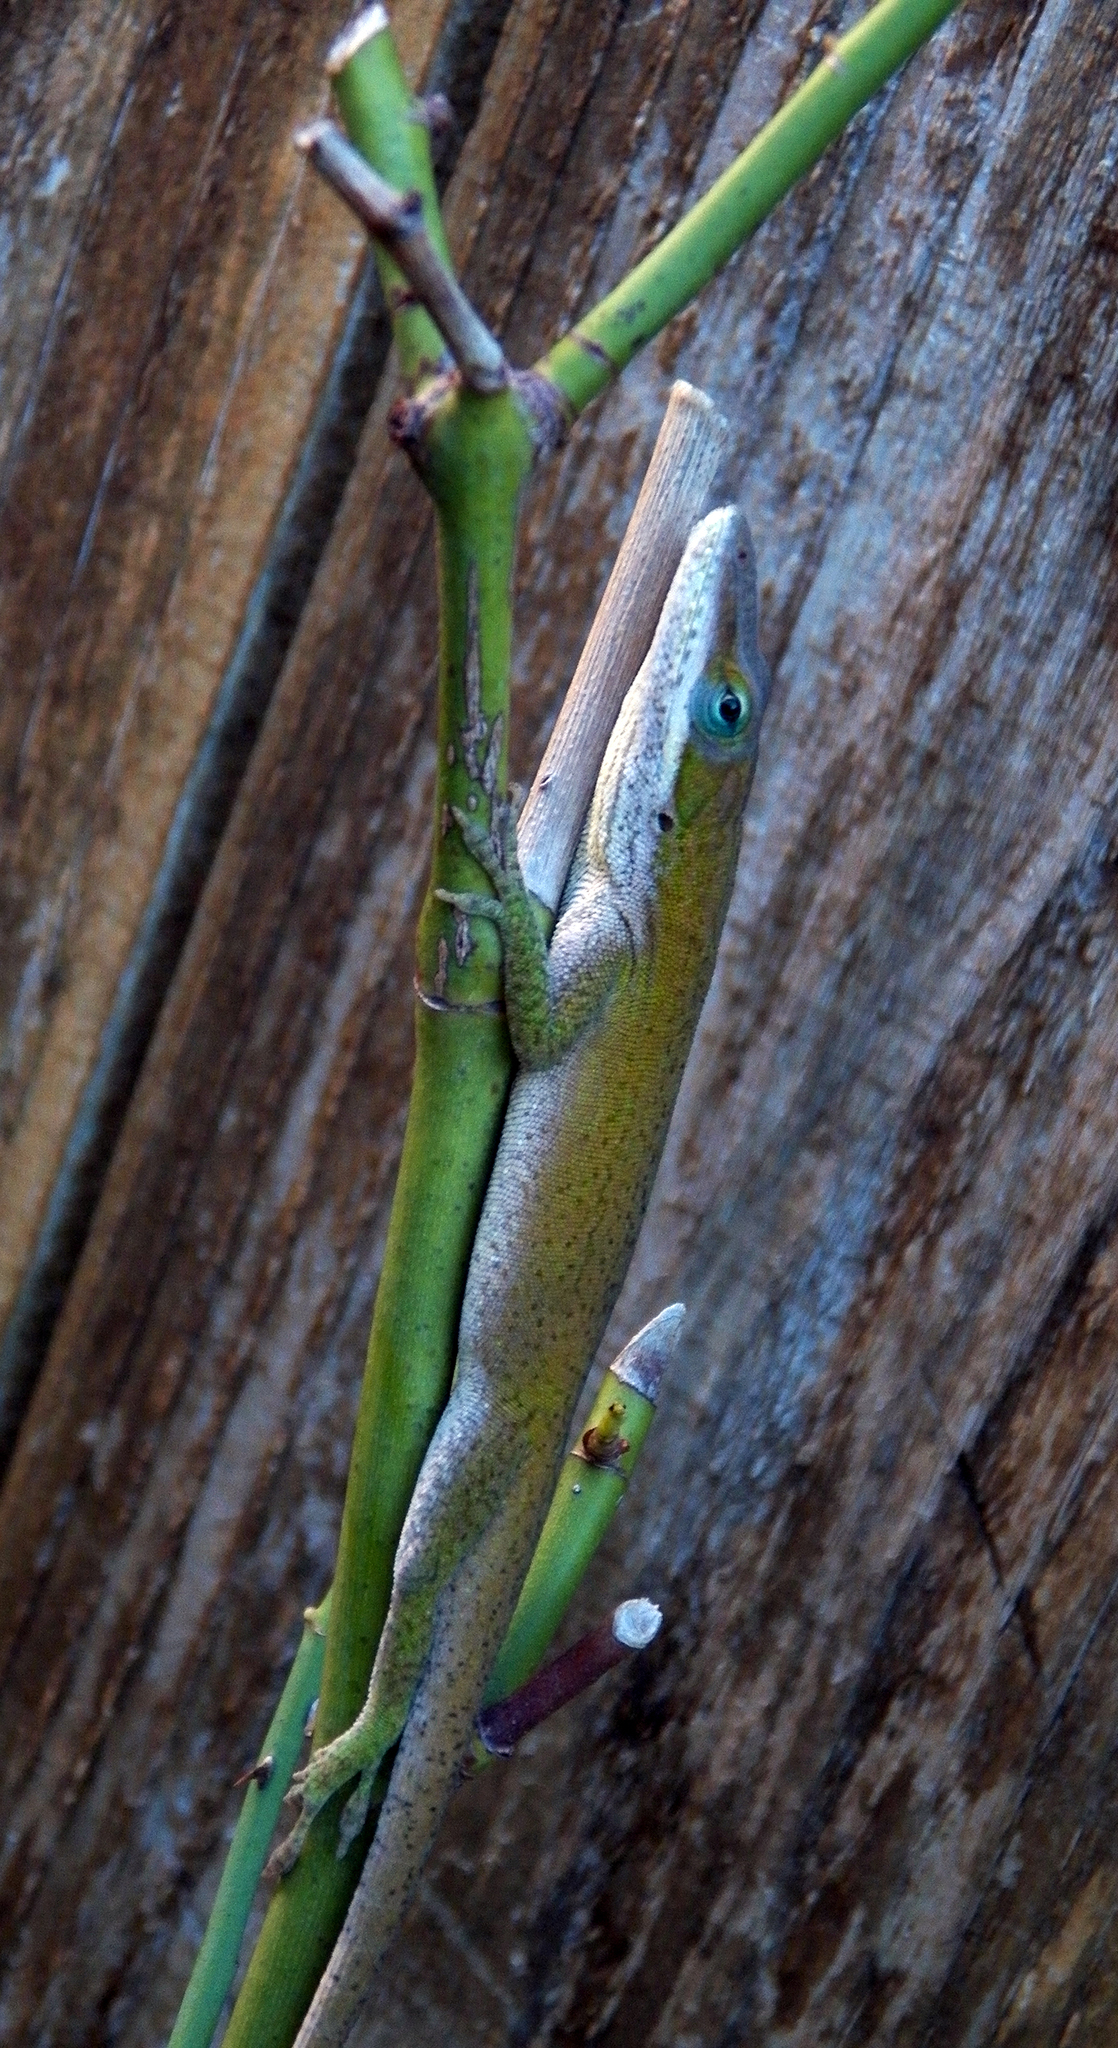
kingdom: Animalia
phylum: Chordata
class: Squamata
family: Dactyloidae
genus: Anolis
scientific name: Anolis carolinensis
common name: Green anole
